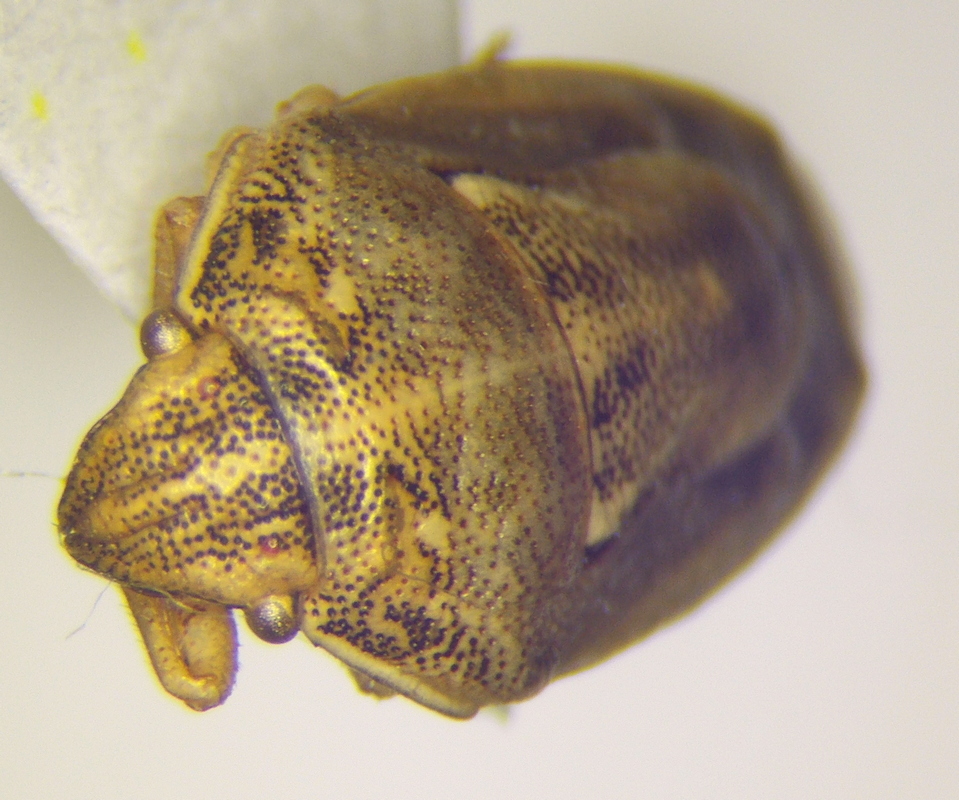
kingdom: Animalia
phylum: Arthropoda
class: Insecta
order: Hemiptera
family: Pentatomidae
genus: Neottiglossa
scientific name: Neottiglossa leporina
